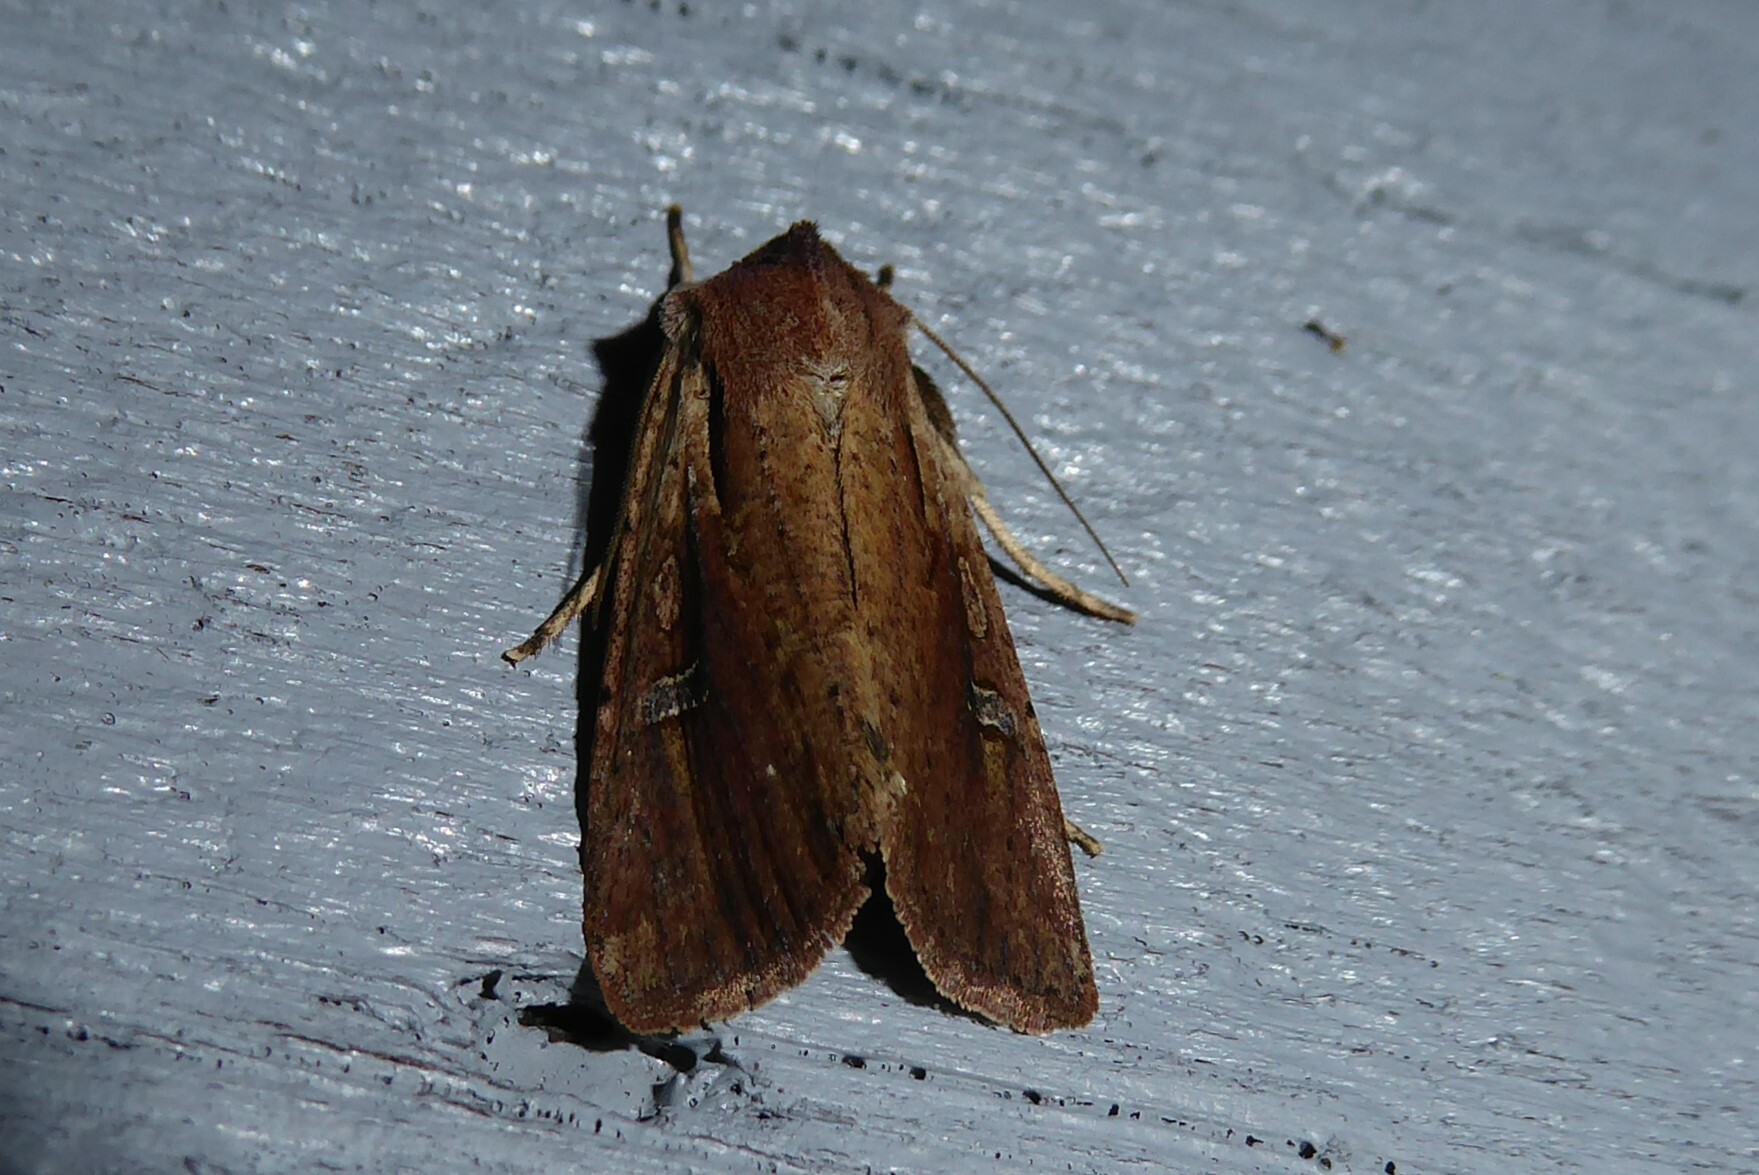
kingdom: Animalia
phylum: Arthropoda
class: Insecta
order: Lepidoptera
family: Noctuidae
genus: Ichneutica
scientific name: Ichneutica atristriga
